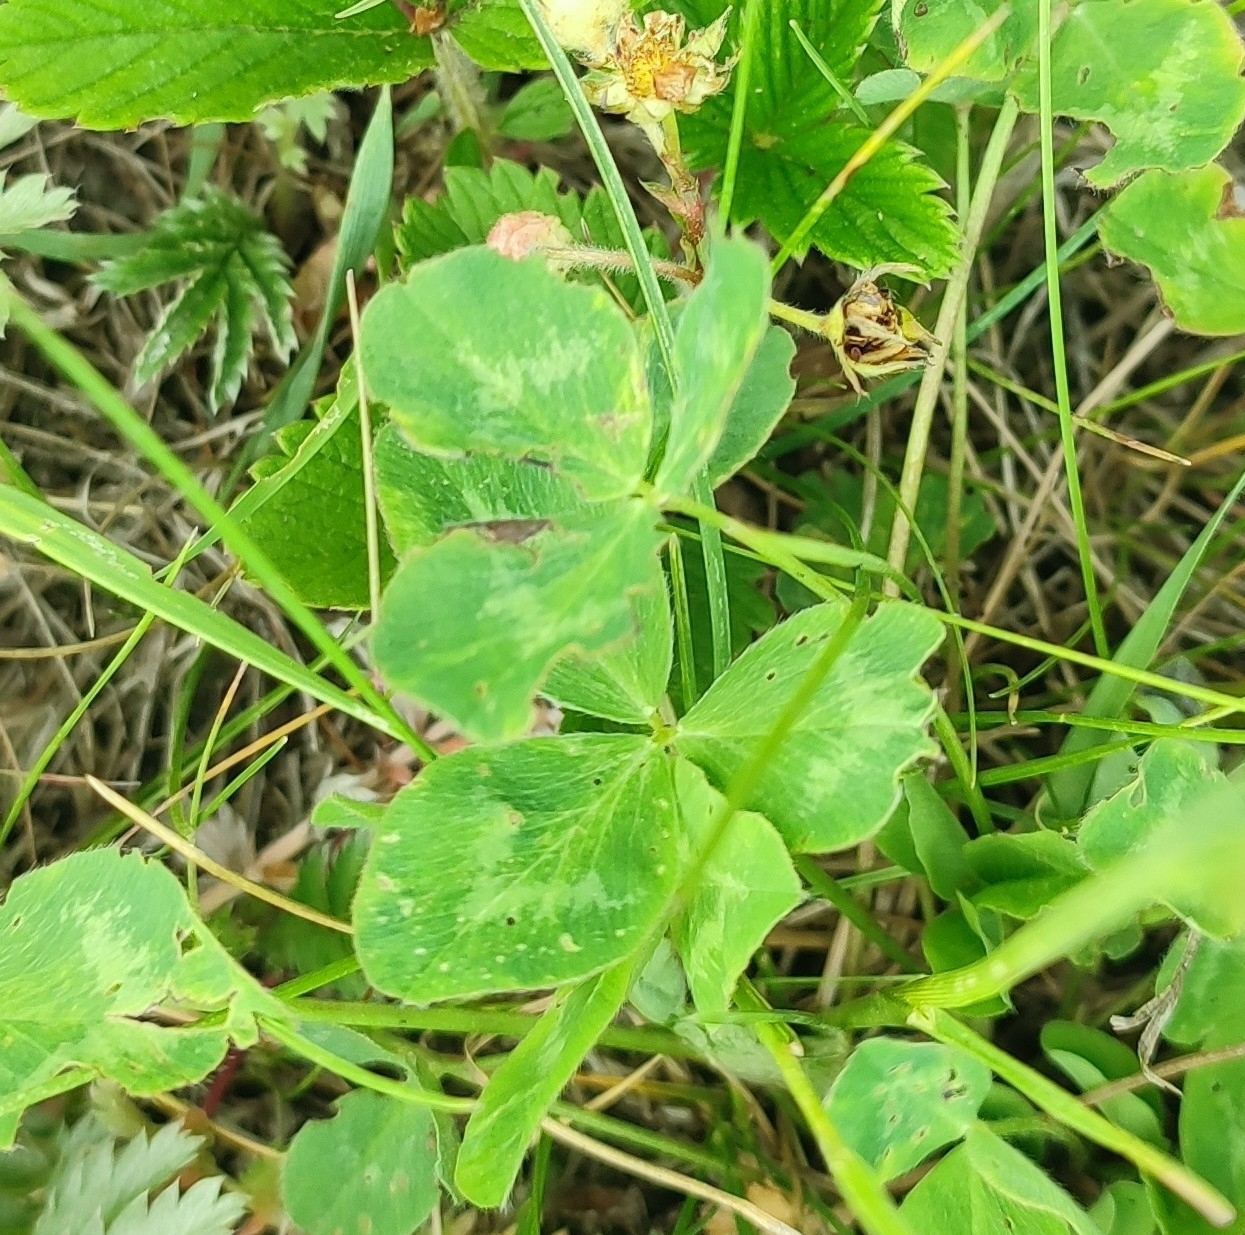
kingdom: Plantae
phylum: Tracheophyta
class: Magnoliopsida
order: Fabales
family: Fabaceae
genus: Trifolium
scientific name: Trifolium pratense
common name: Red clover
